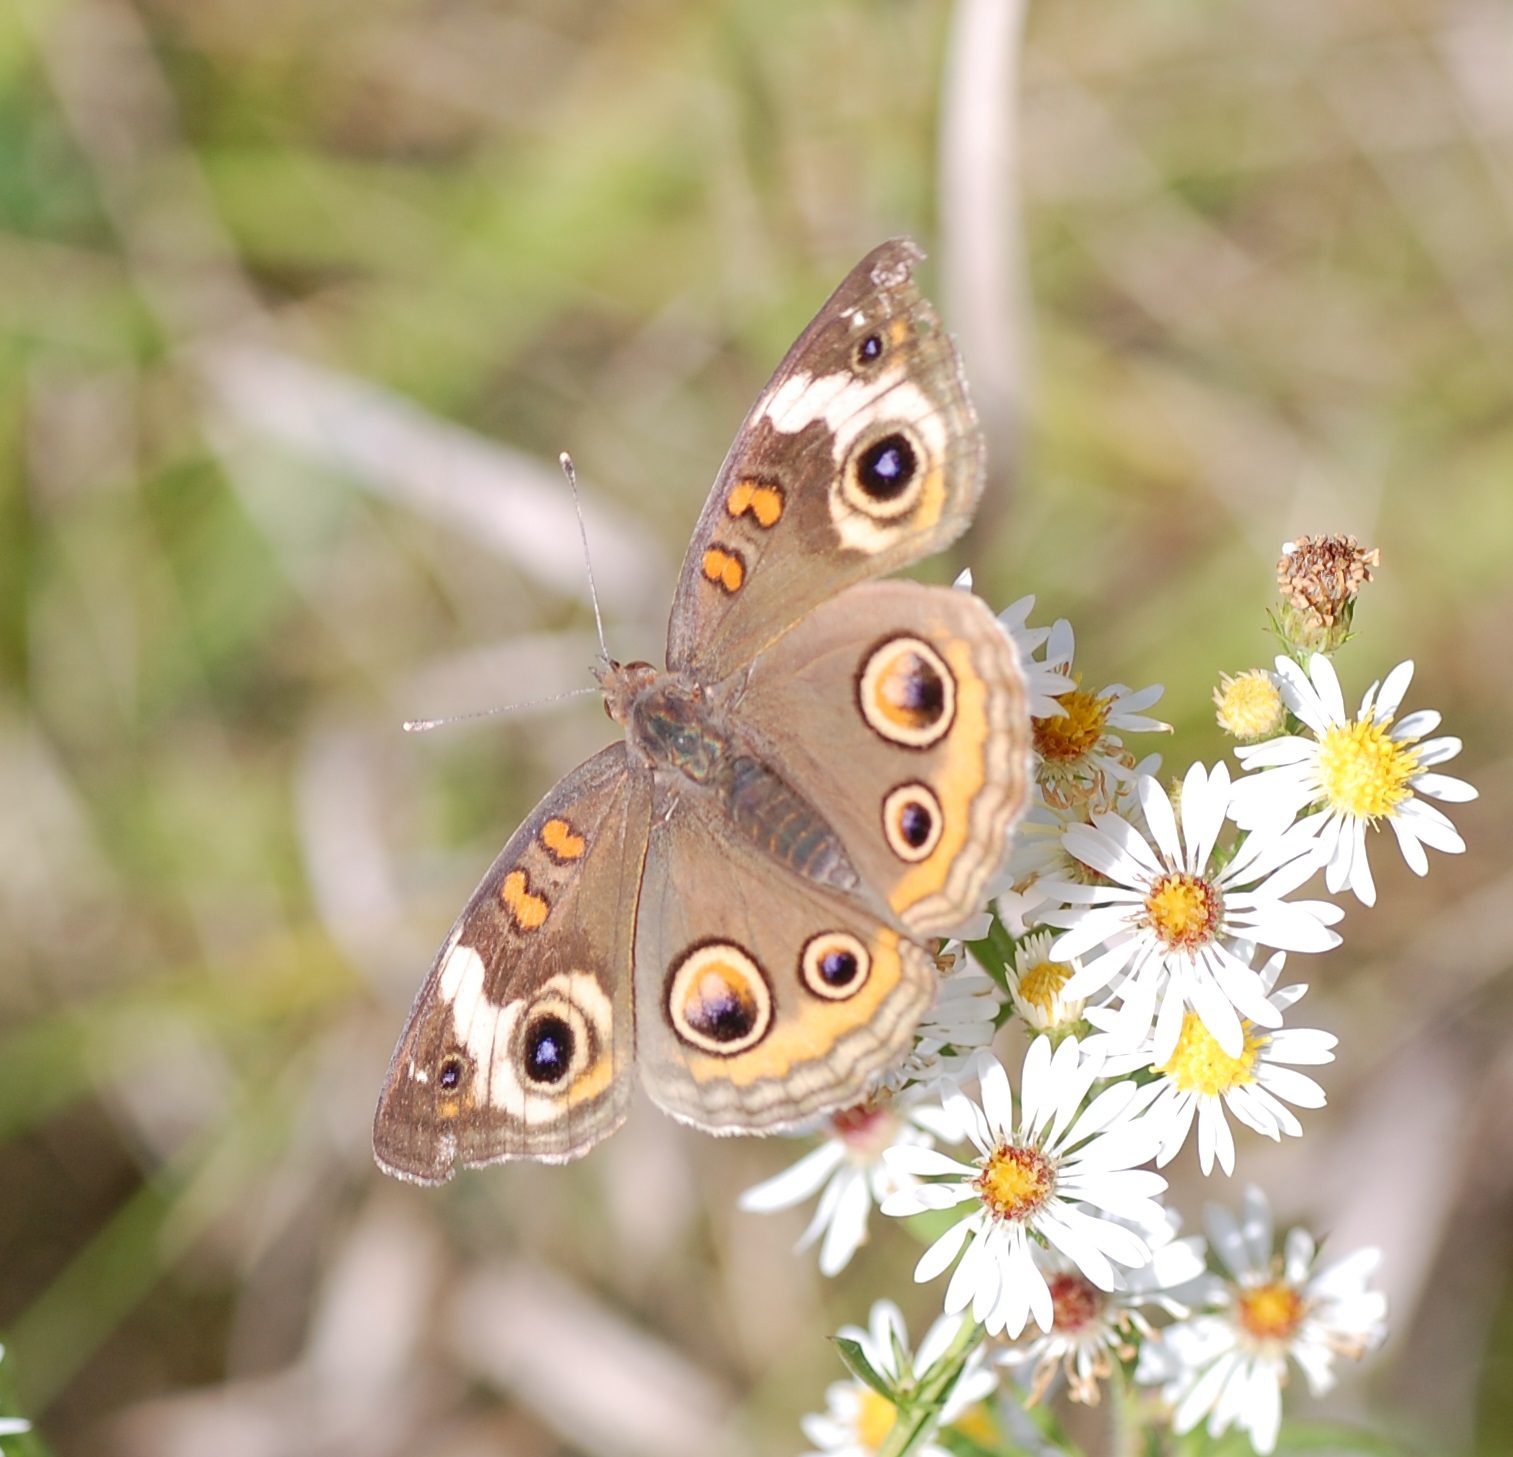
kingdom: Animalia
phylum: Arthropoda
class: Insecta
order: Lepidoptera
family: Nymphalidae
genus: Junonia
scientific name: Junonia coenia
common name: Common buckeye
